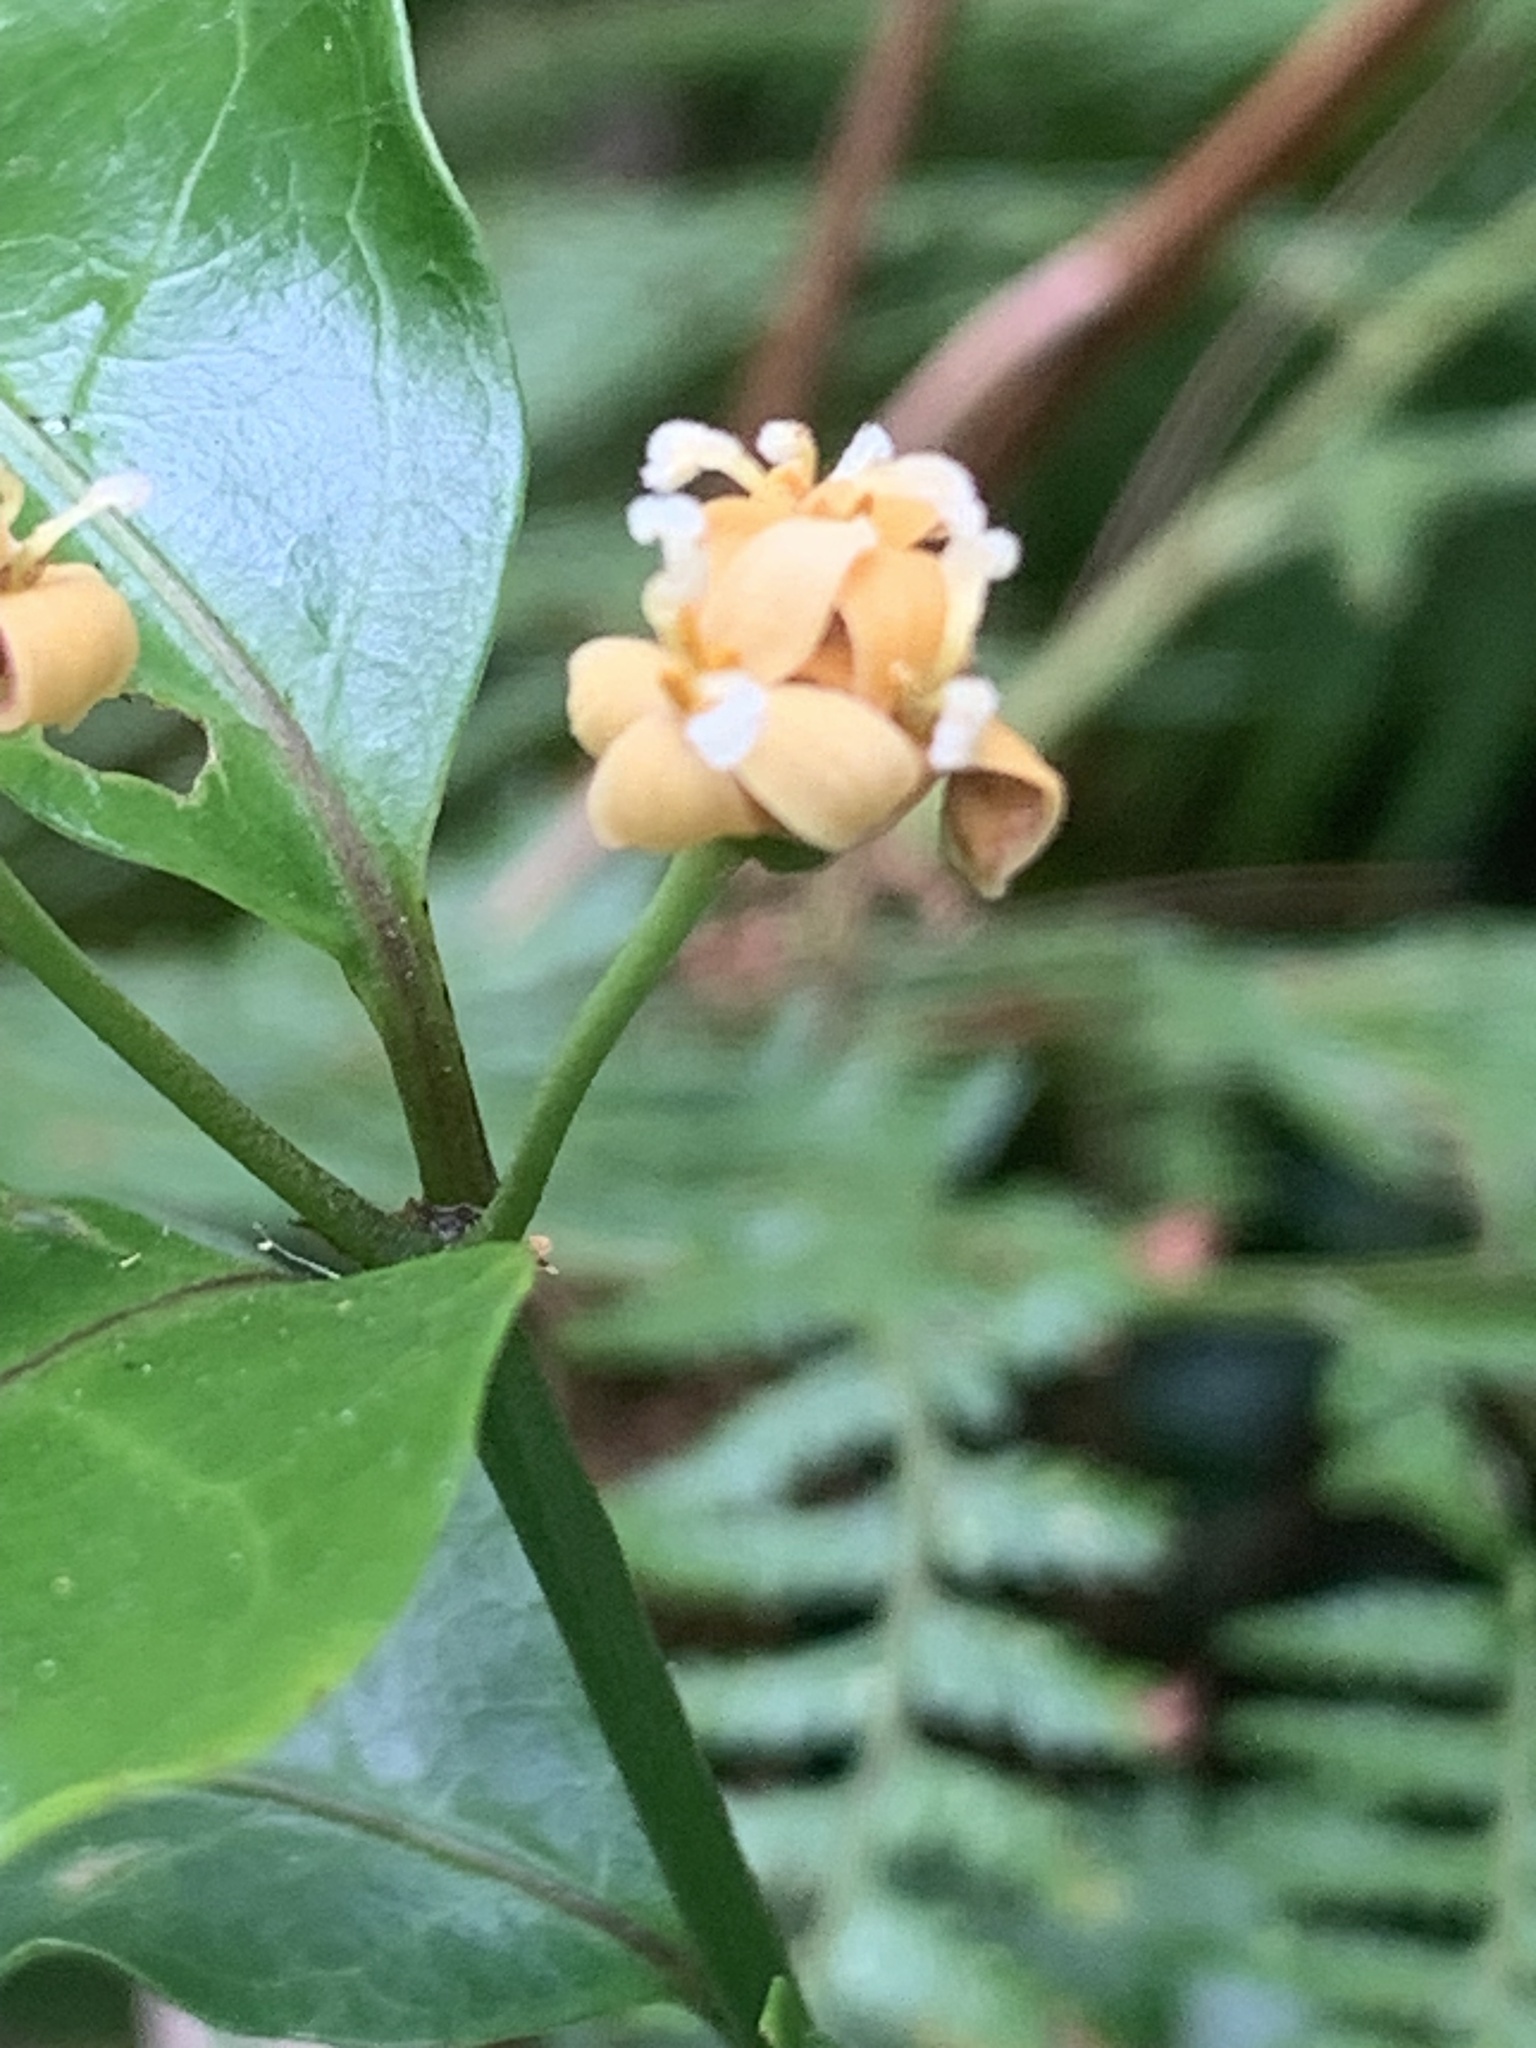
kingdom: Plantae
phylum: Tracheophyta
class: Magnoliopsida
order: Gentianales
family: Rubiaceae
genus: Gynochthodes
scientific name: Gynochthodes jasminoides
